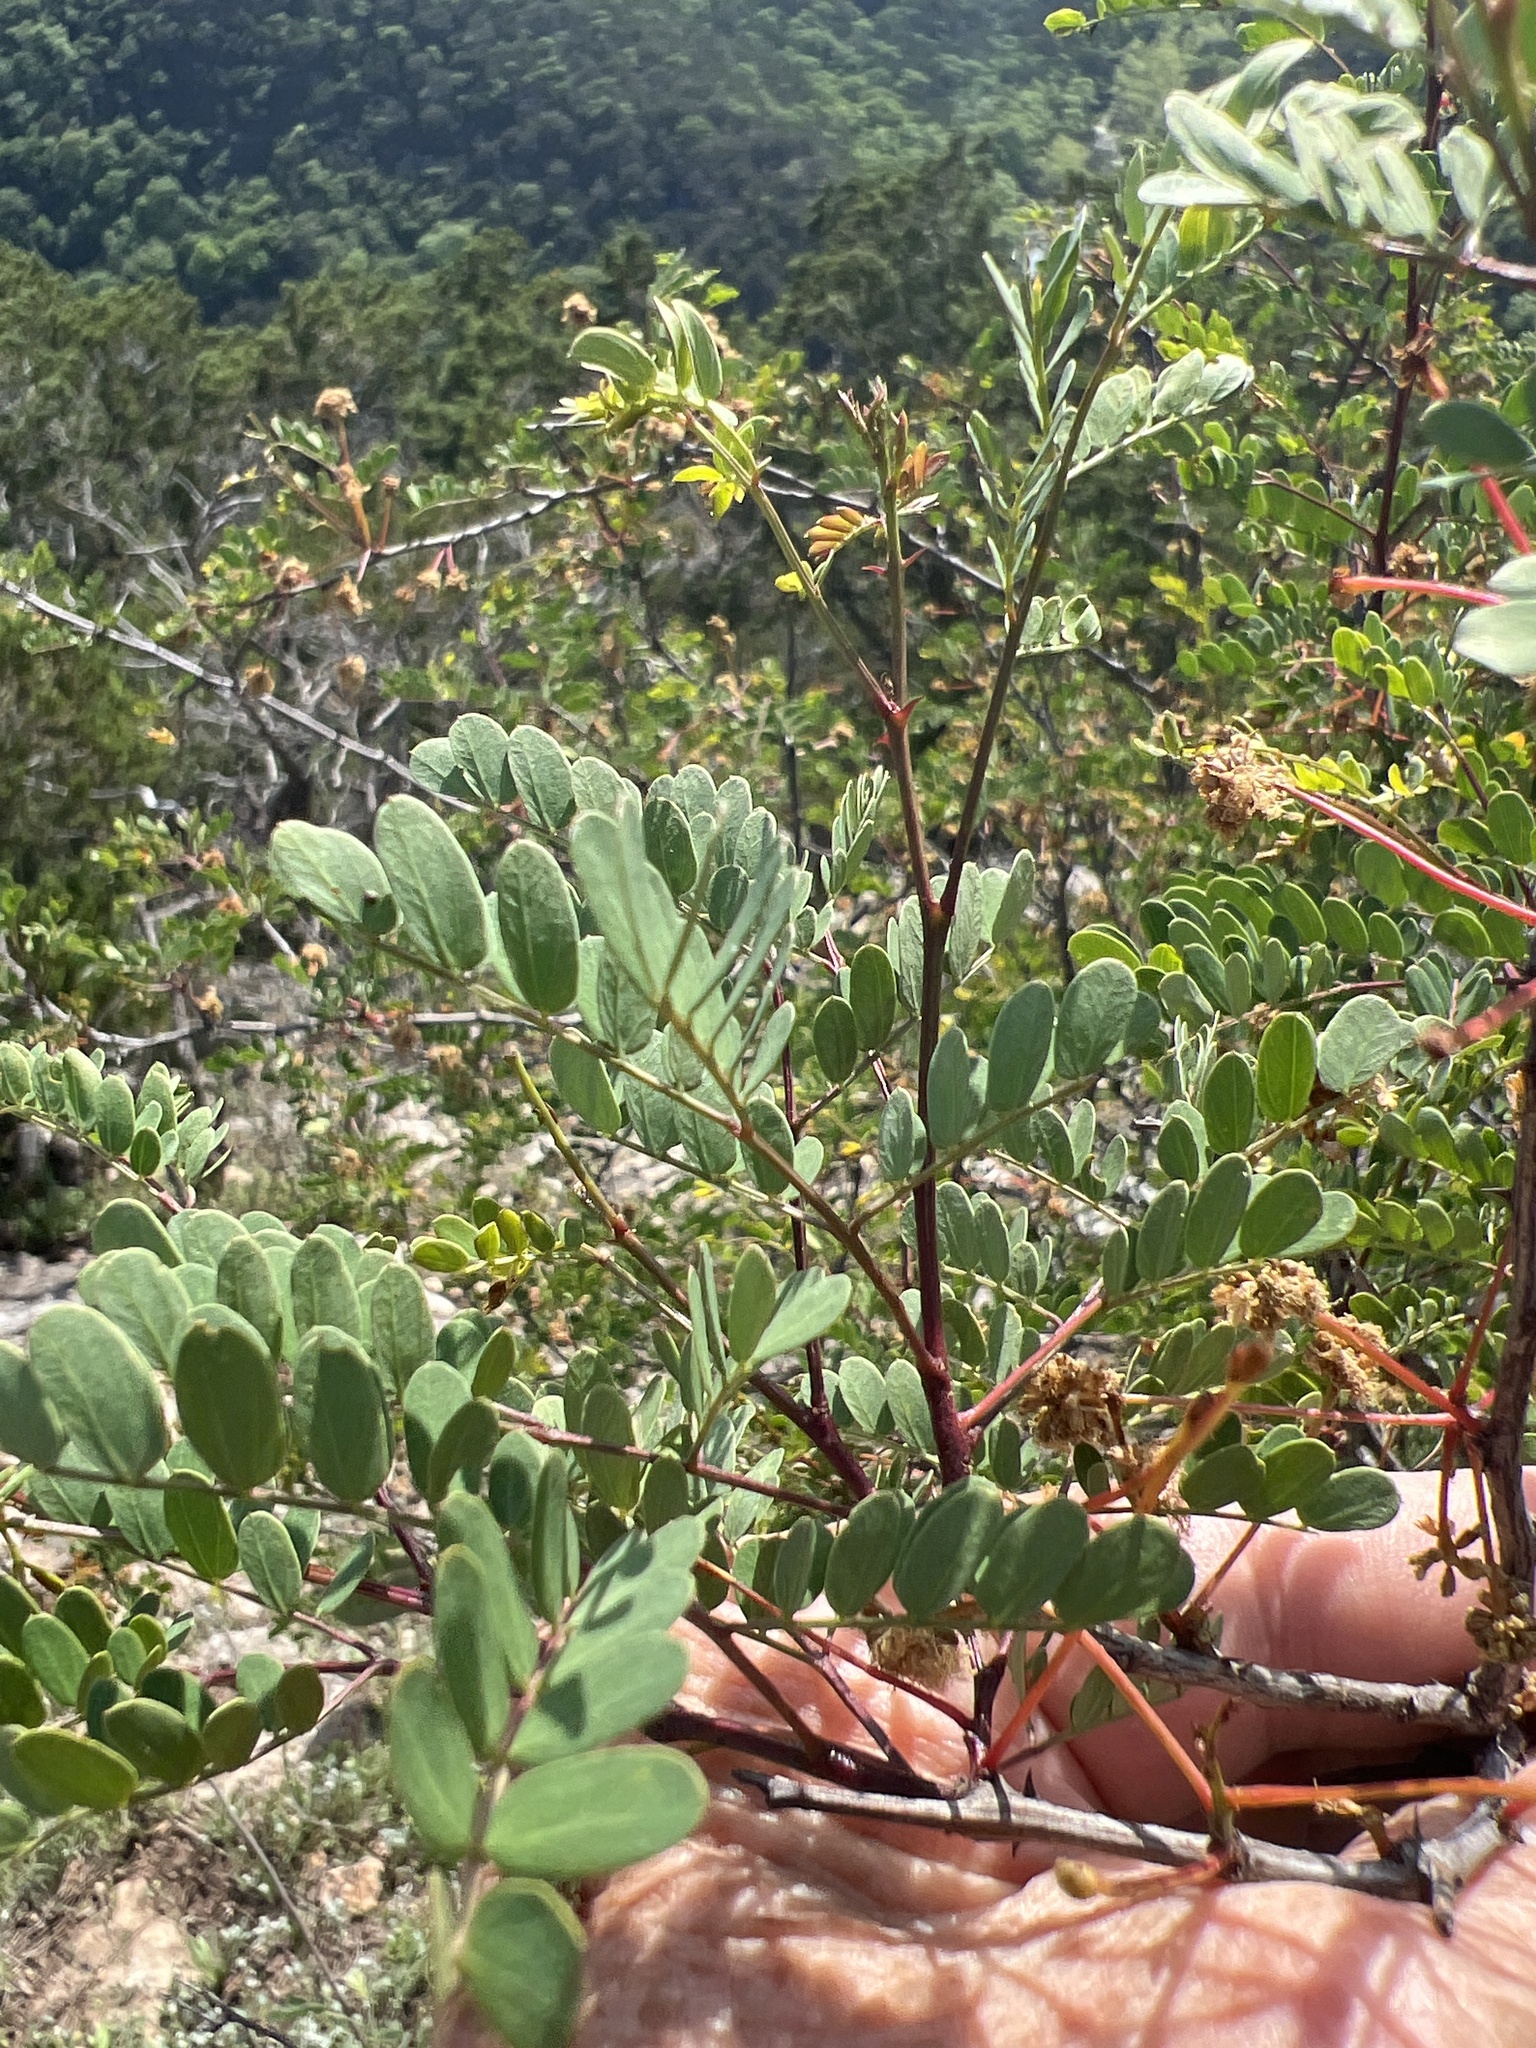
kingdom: Plantae
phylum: Tracheophyta
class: Magnoliopsida
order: Fabales
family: Fabaceae
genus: Senegalia
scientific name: Senegalia roemeriana
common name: Roemer's acacia
